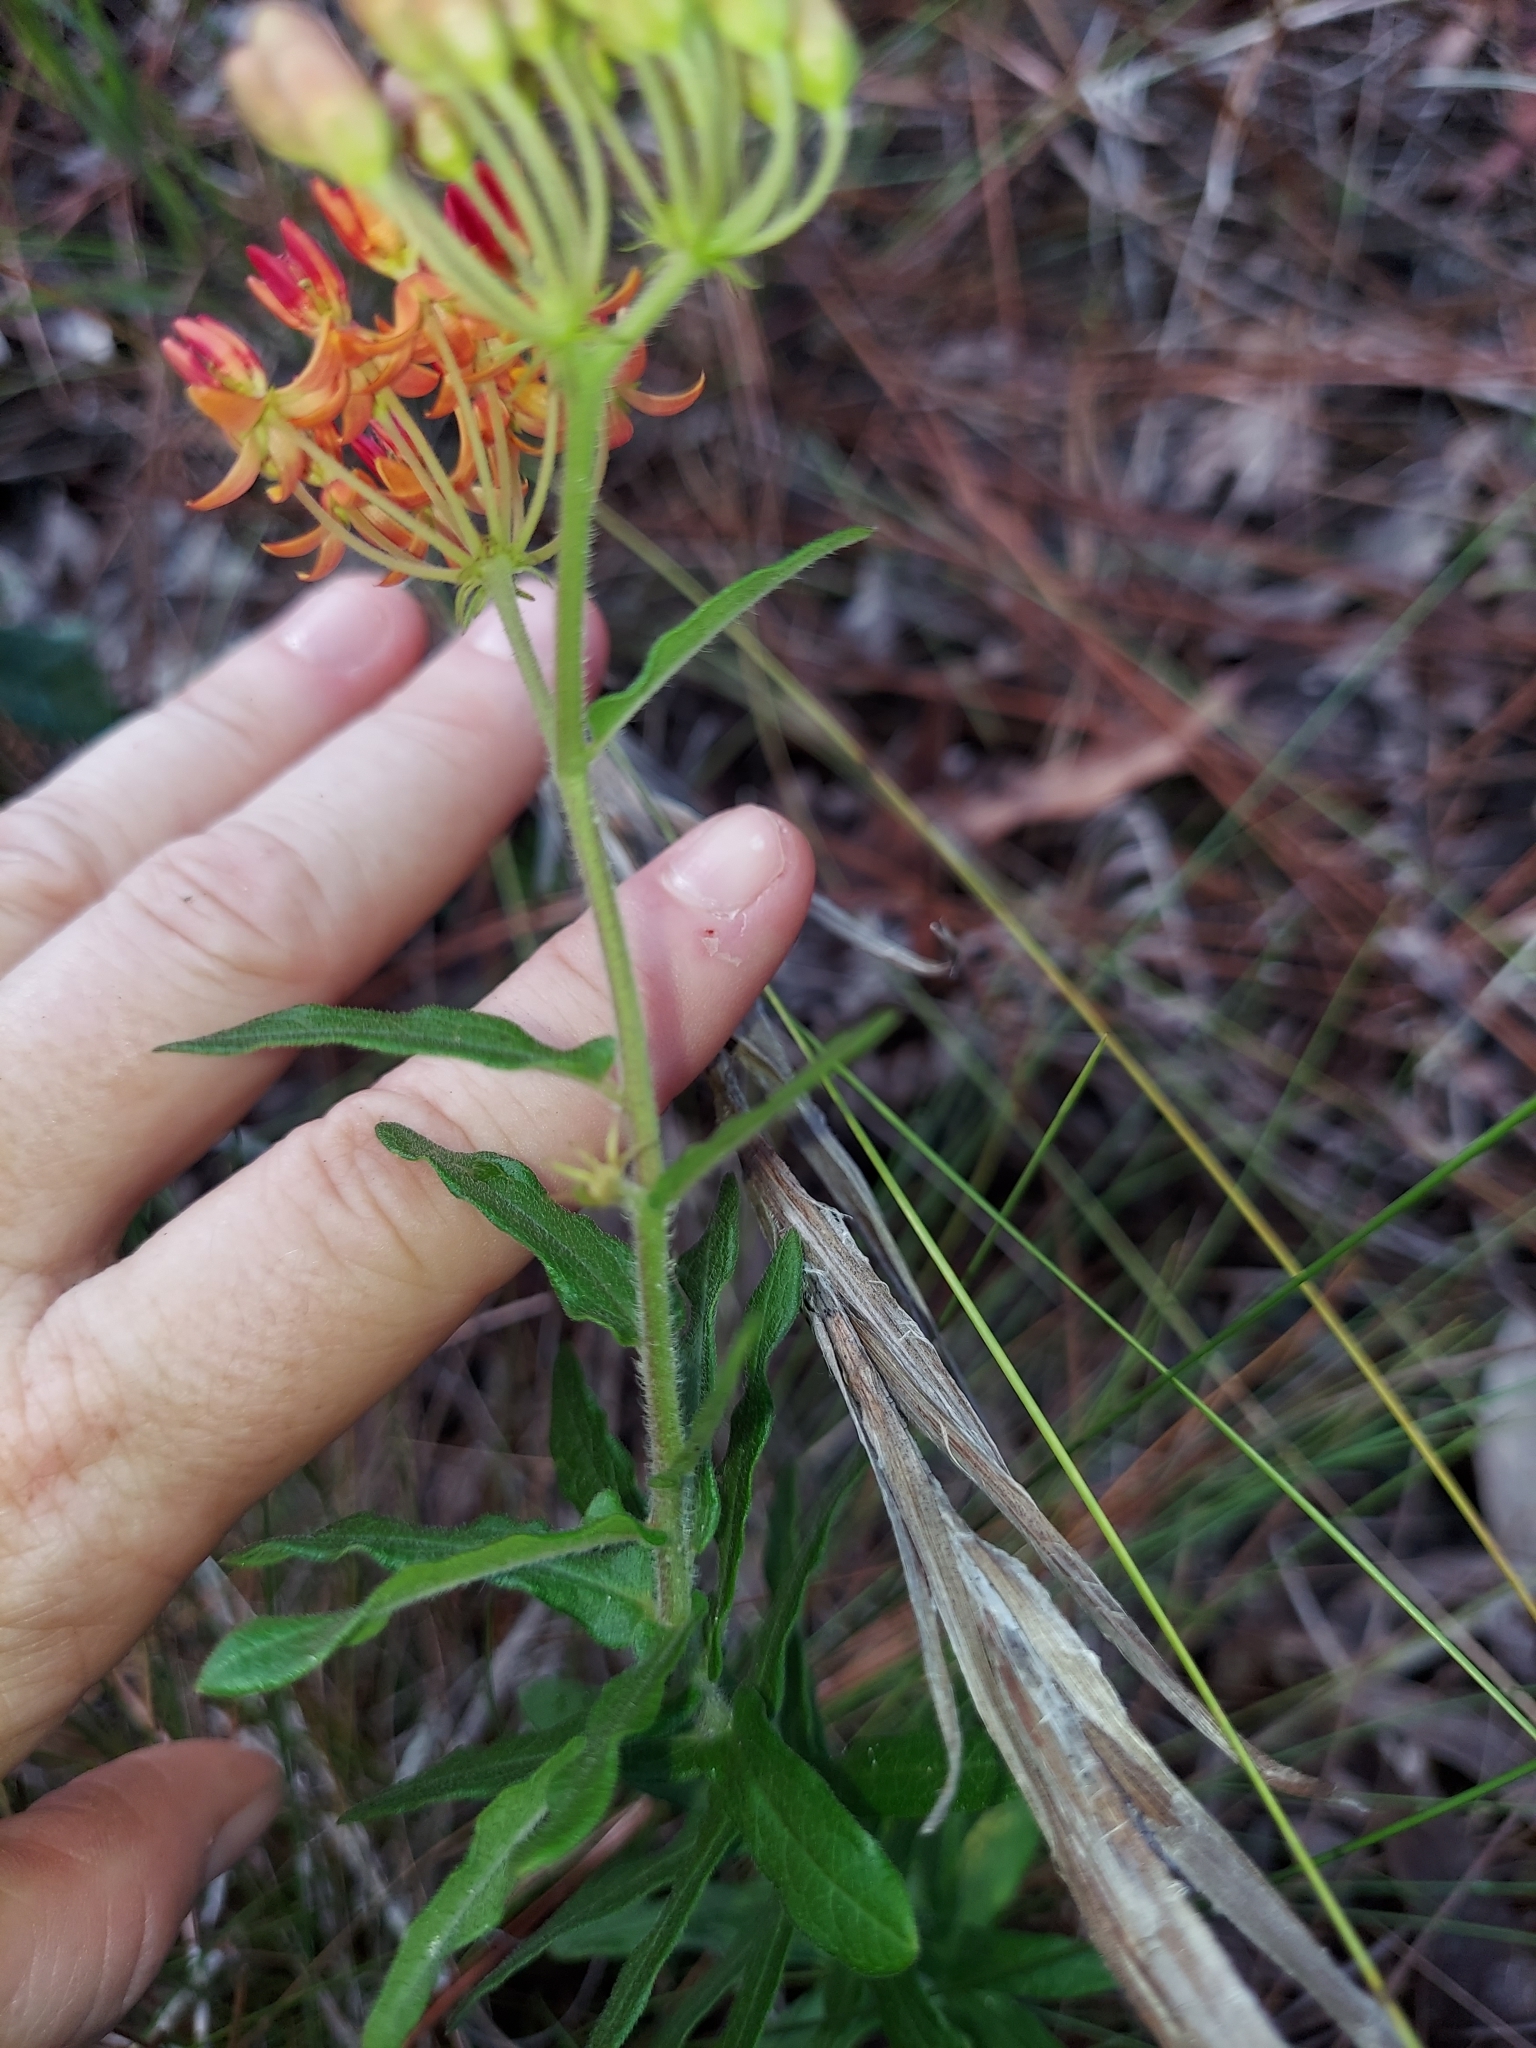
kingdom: Plantae
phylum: Tracheophyta
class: Magnoliopsida
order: Gentianales
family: Apocynaceae
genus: Asclepias
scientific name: Asclepias tuberosa
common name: Butterfly milkweed
